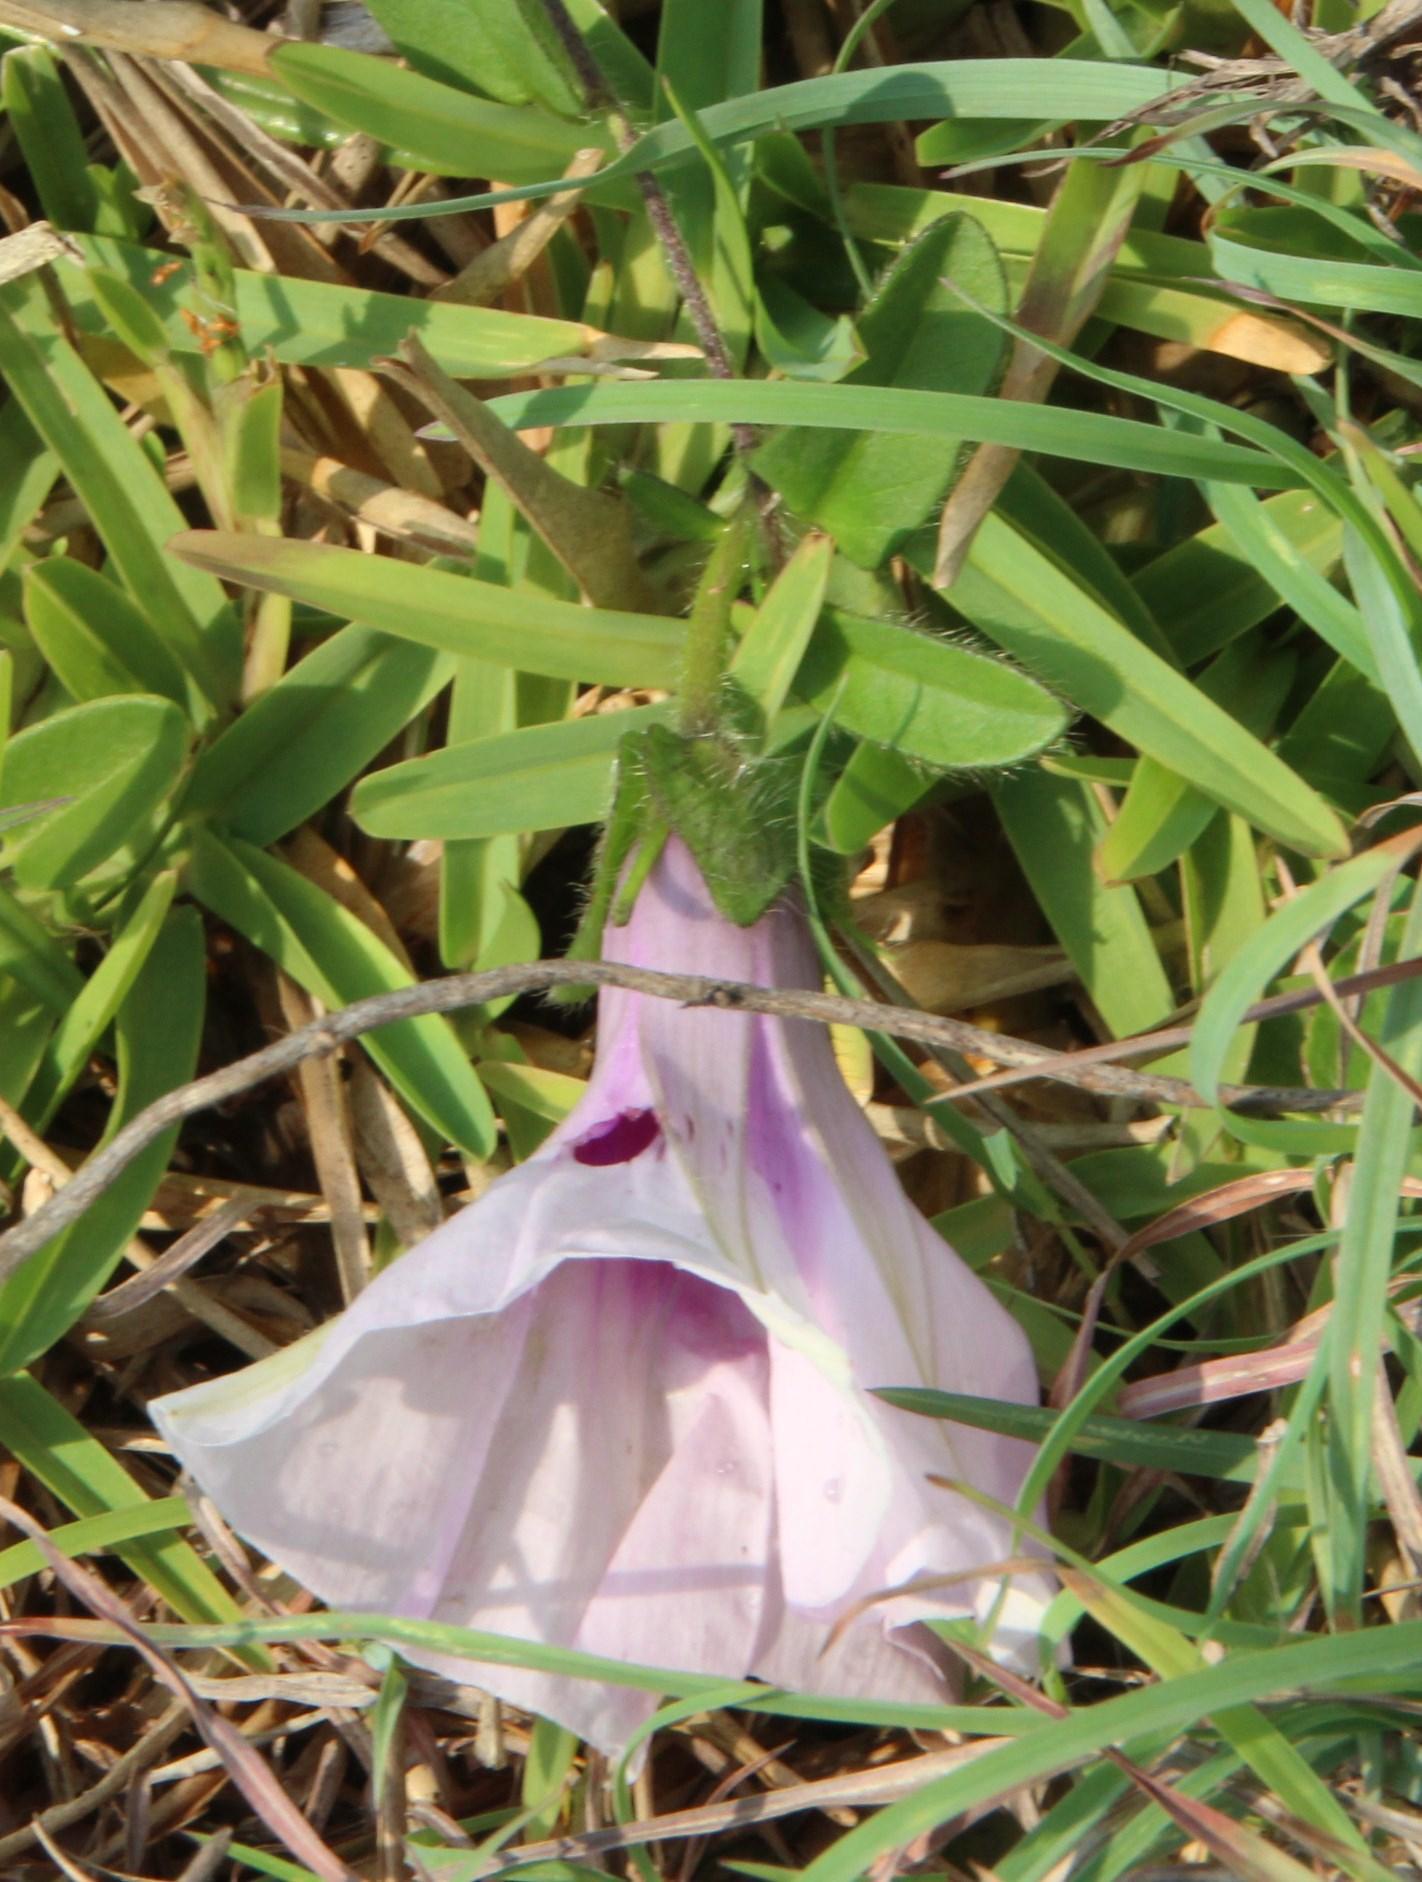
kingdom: Plantae
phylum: Tracheophyta
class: Magnoliopsida
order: Solanales
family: Convolvulaceae
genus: Ipomoea
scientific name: Ipomoea crassipes
